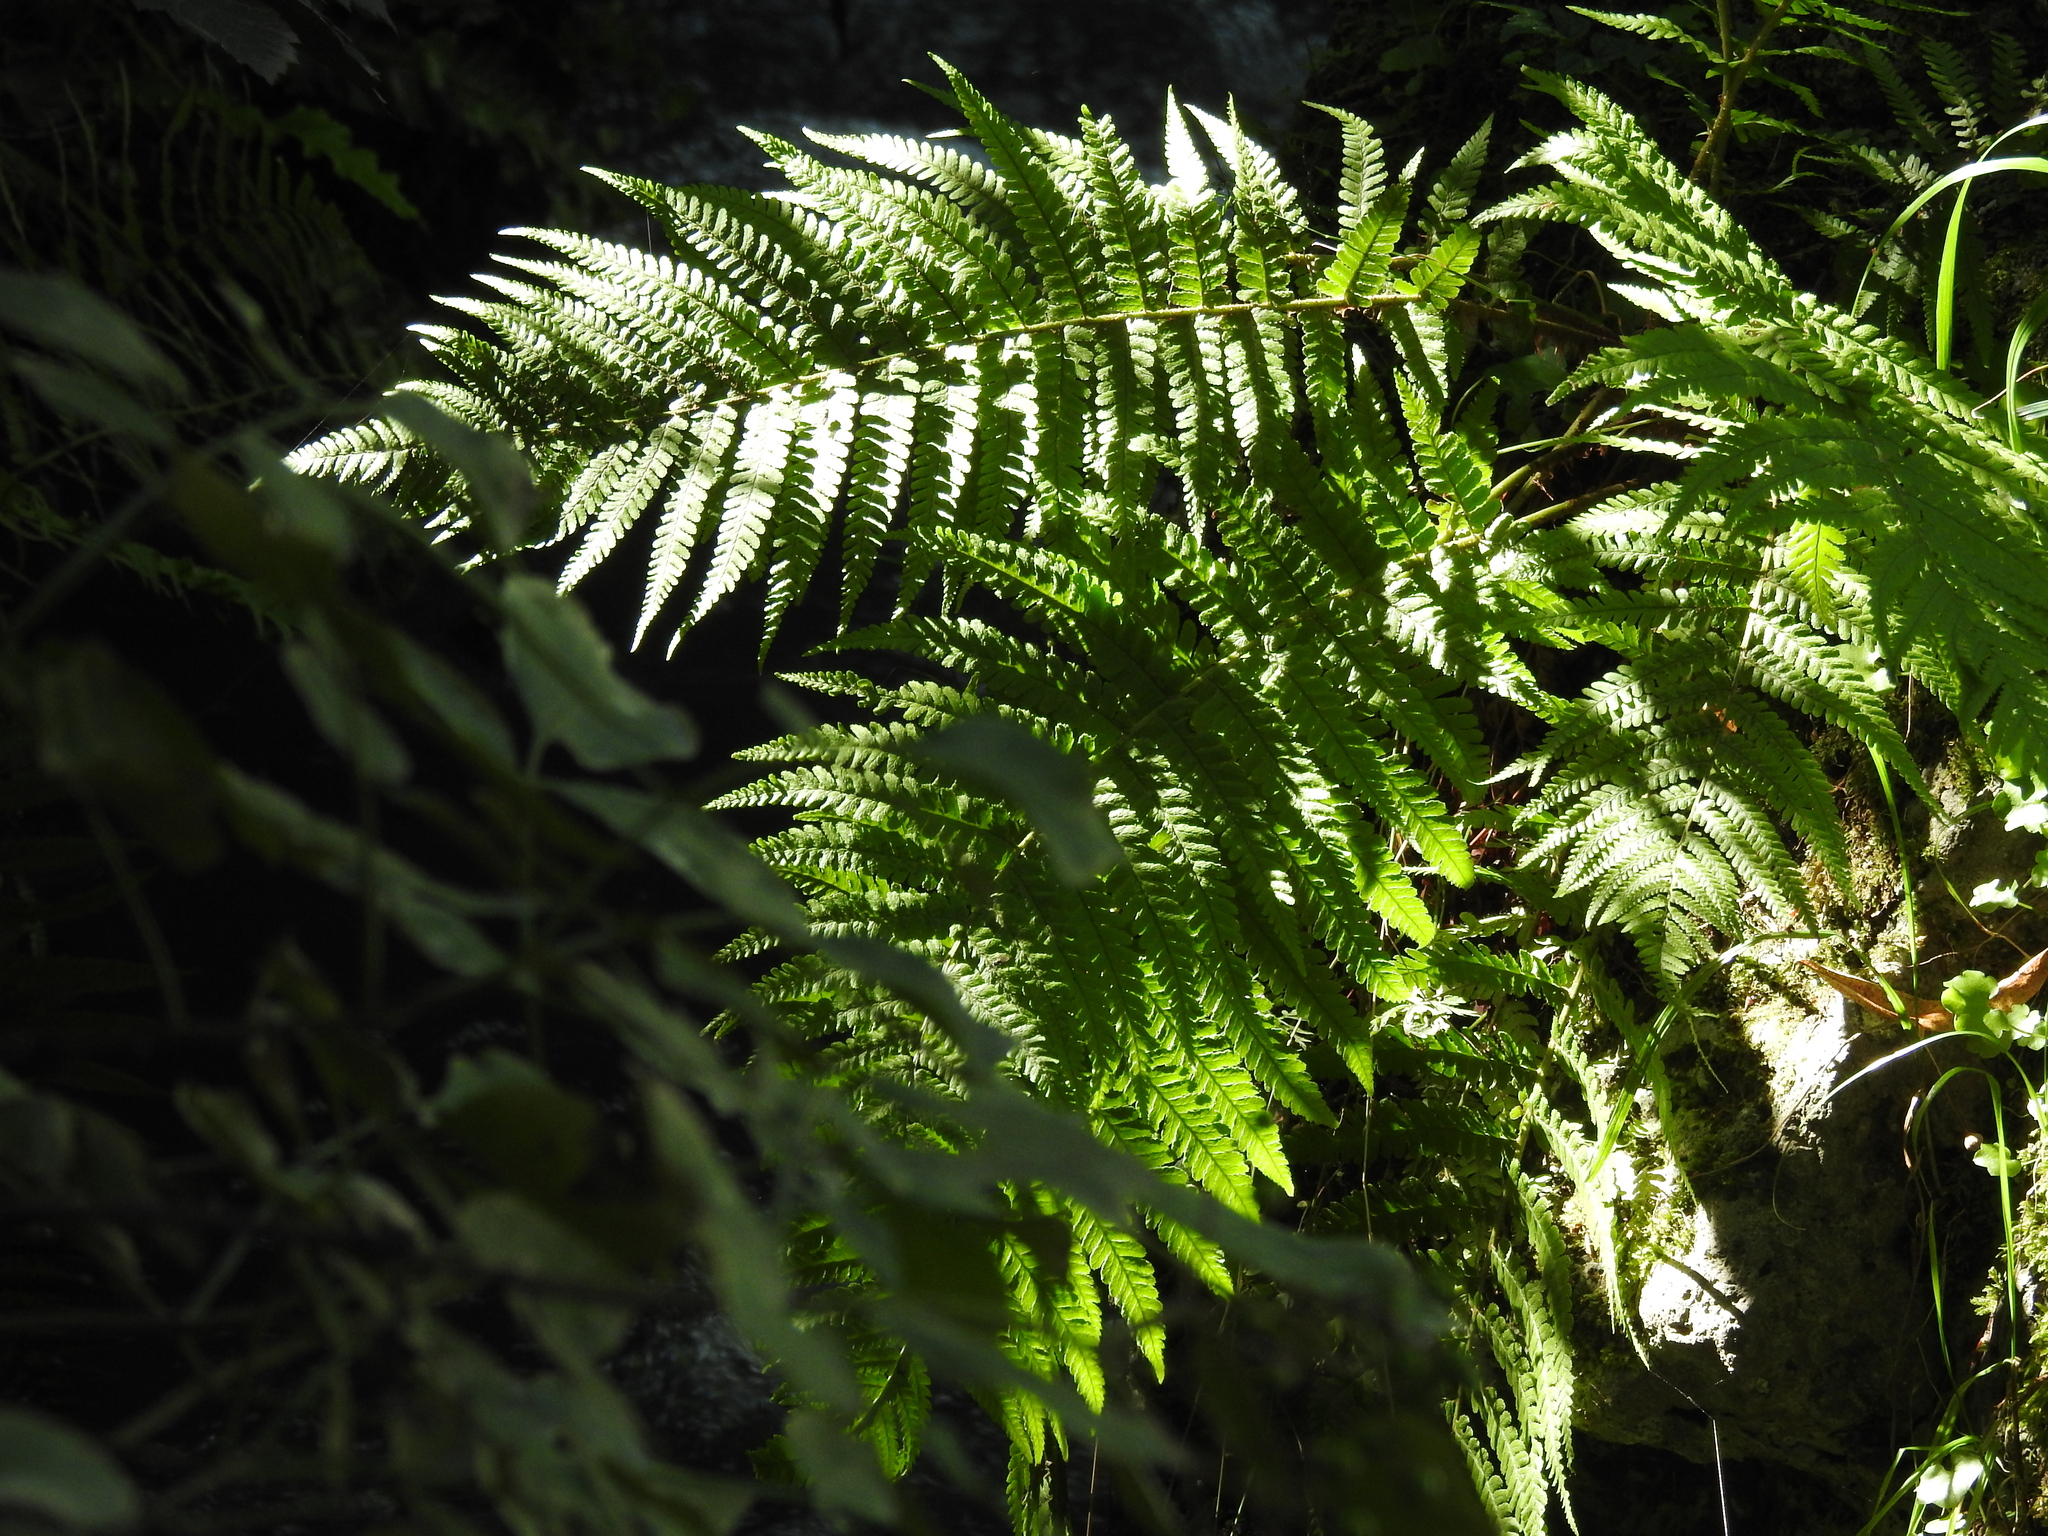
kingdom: Plantae
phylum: Tracheophyta
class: Polypodiopsida
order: Polypodiales
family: Dryopteridaceae
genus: Dryopteris
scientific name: Dryopteris filix-mas
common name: Male fern
